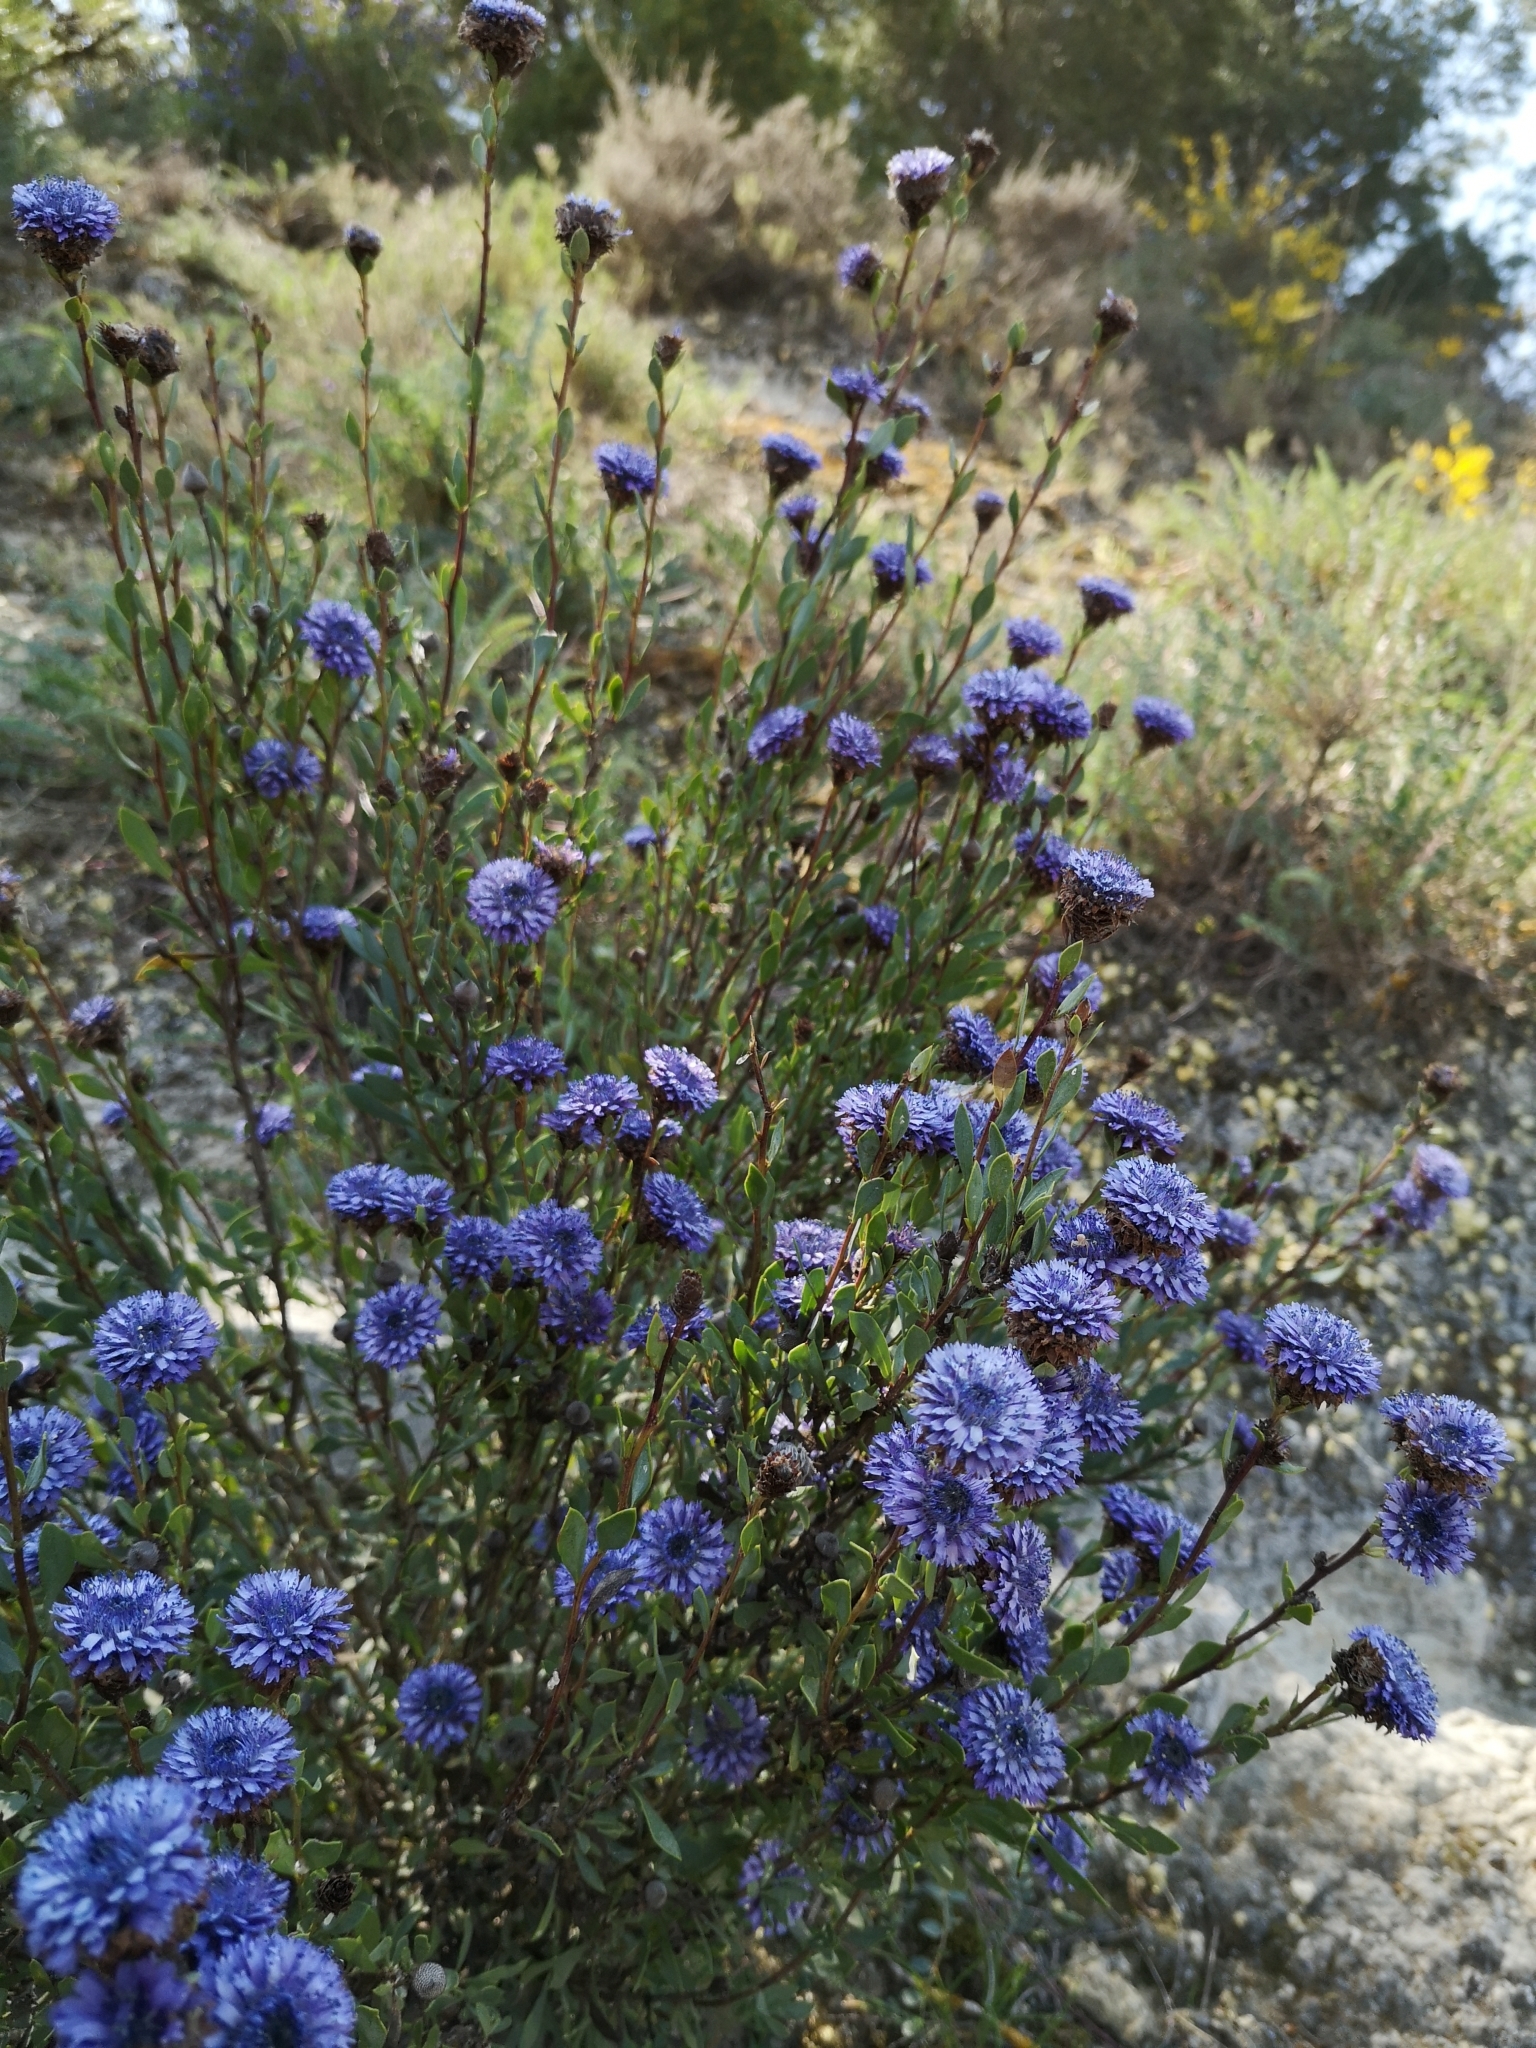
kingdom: Plantae
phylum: Tracheophyta
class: Magnoliopsida
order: Lamiales
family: Plantaginaceae
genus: Globularia
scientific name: Globularia alypum
